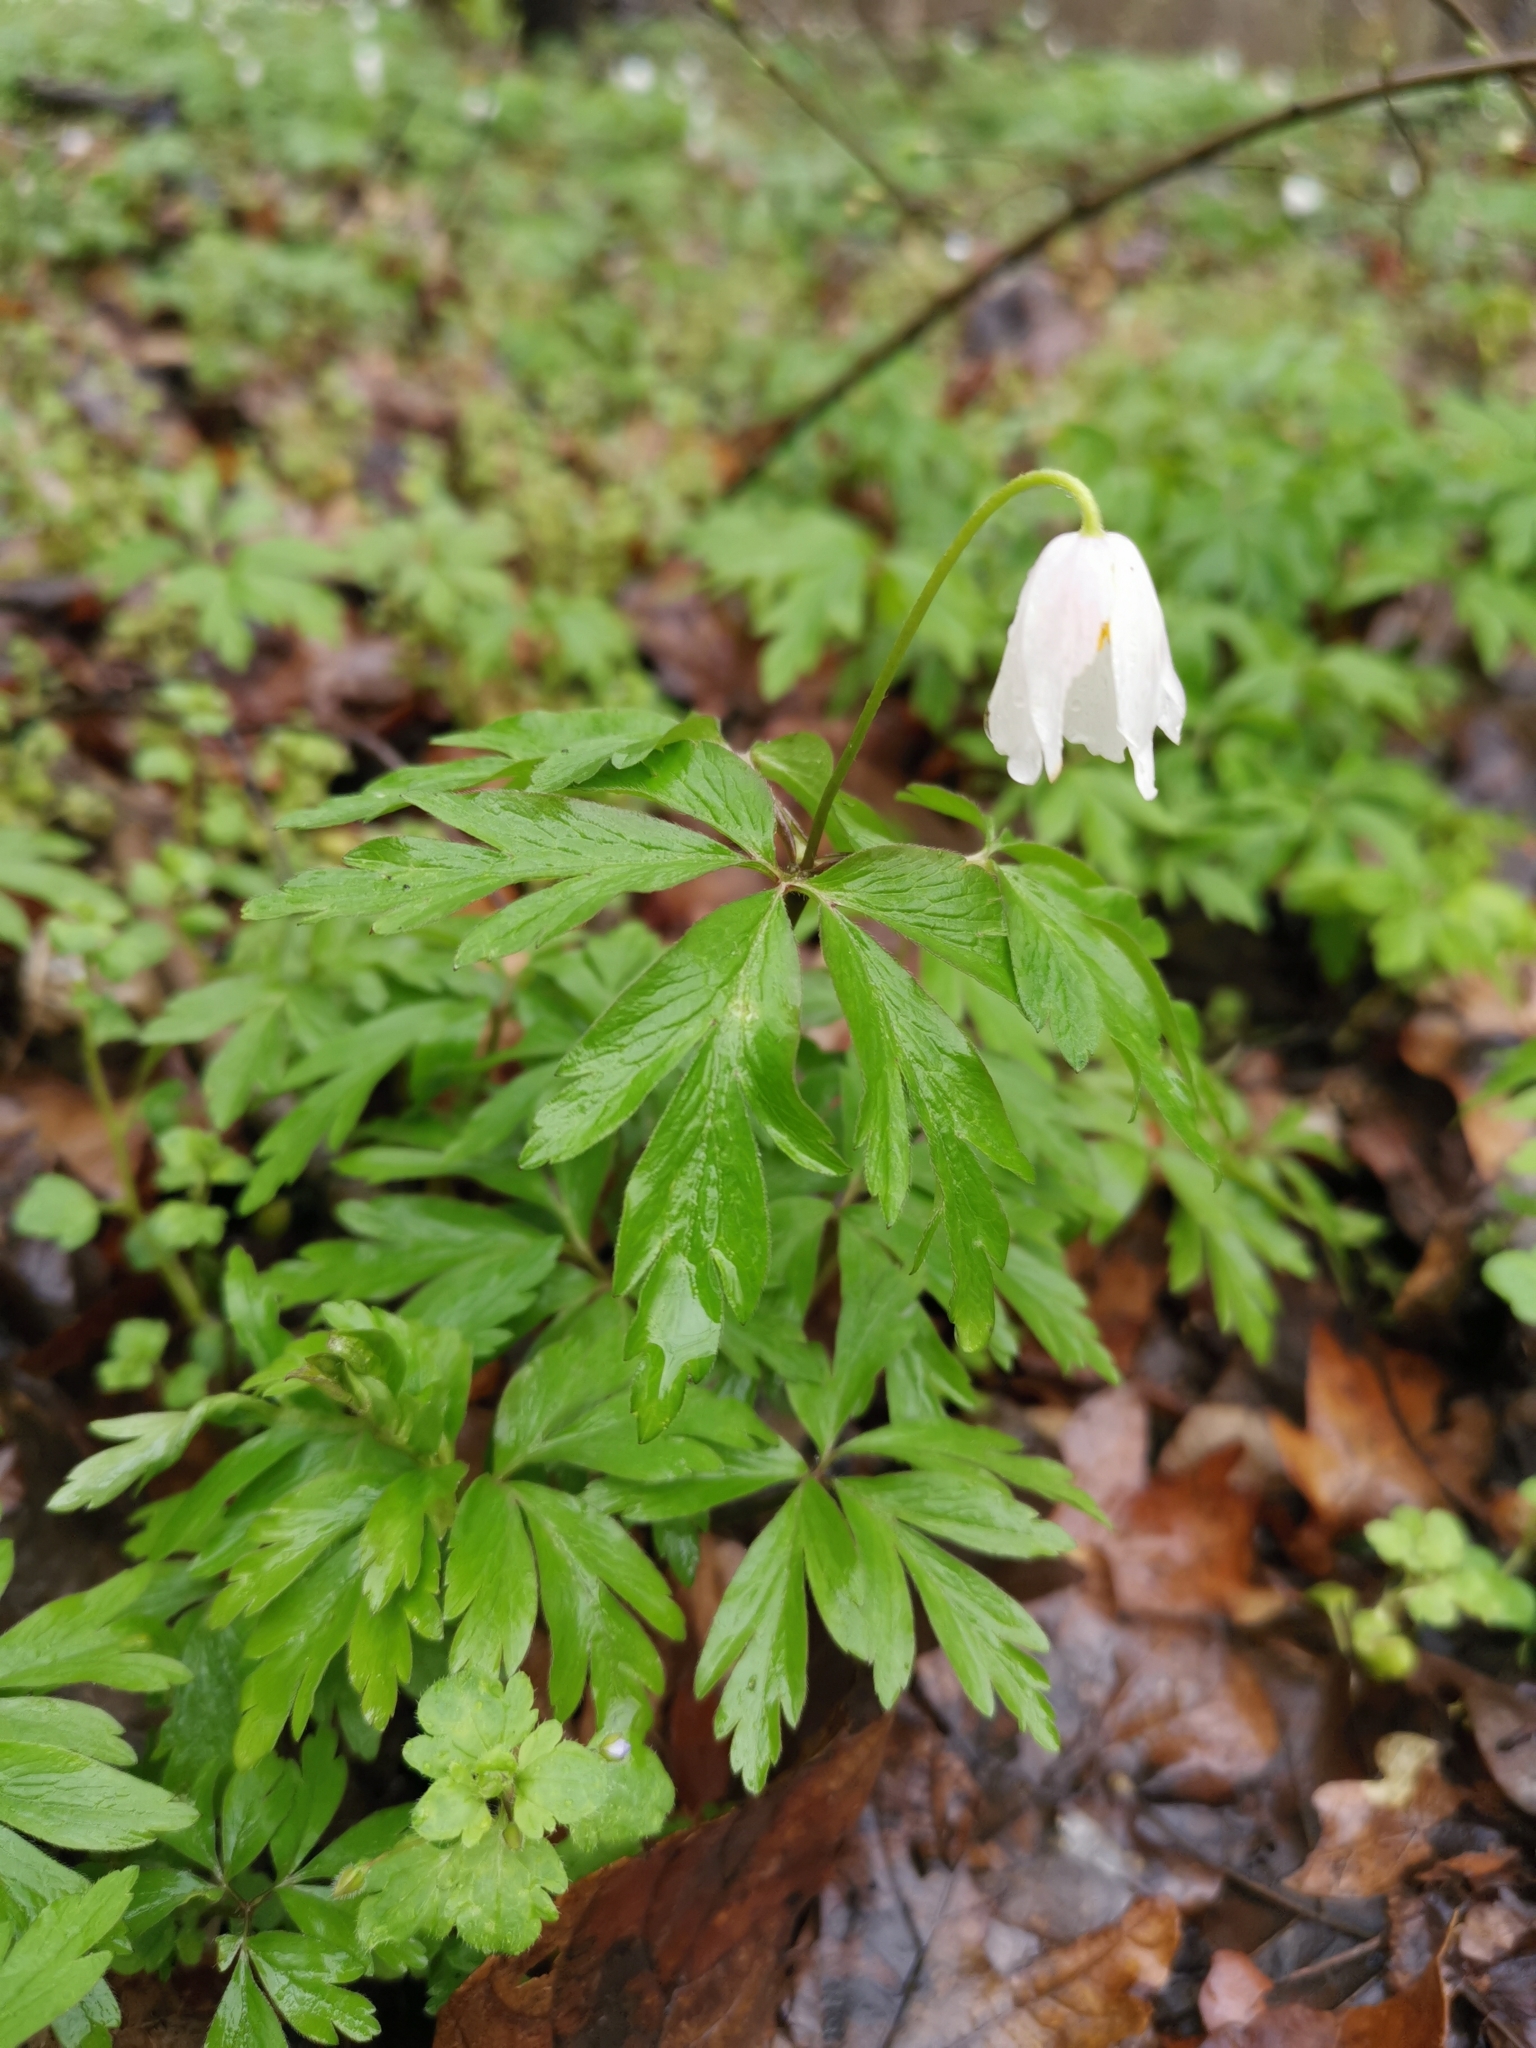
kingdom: Plantae
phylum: Tracheophyta
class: Magnoliopsida
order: Ranunculales
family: Ranunculaceae
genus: Anemone
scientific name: Anemone nemorosa
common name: Wood anemone
